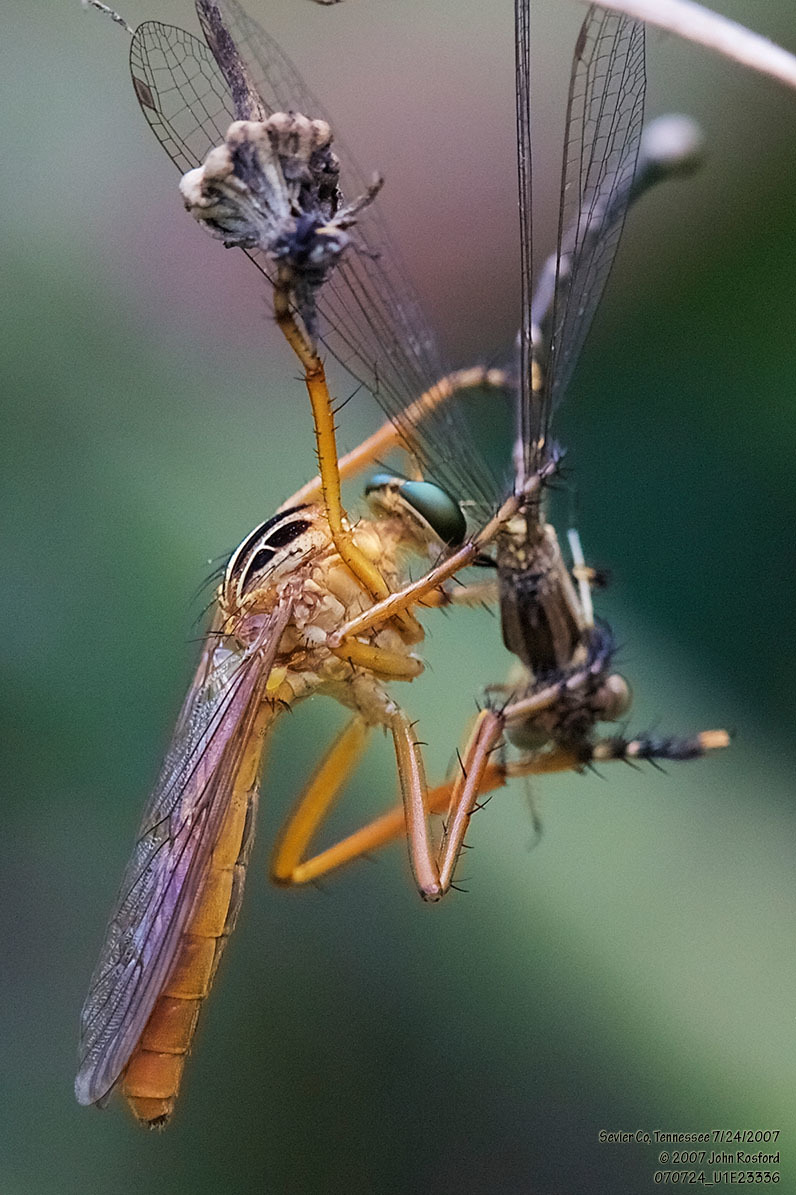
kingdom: Animalia
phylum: Arthropoda
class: Insecta
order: Diptera
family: Asilidae
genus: Diogmites
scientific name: Diogmites neoternatus
